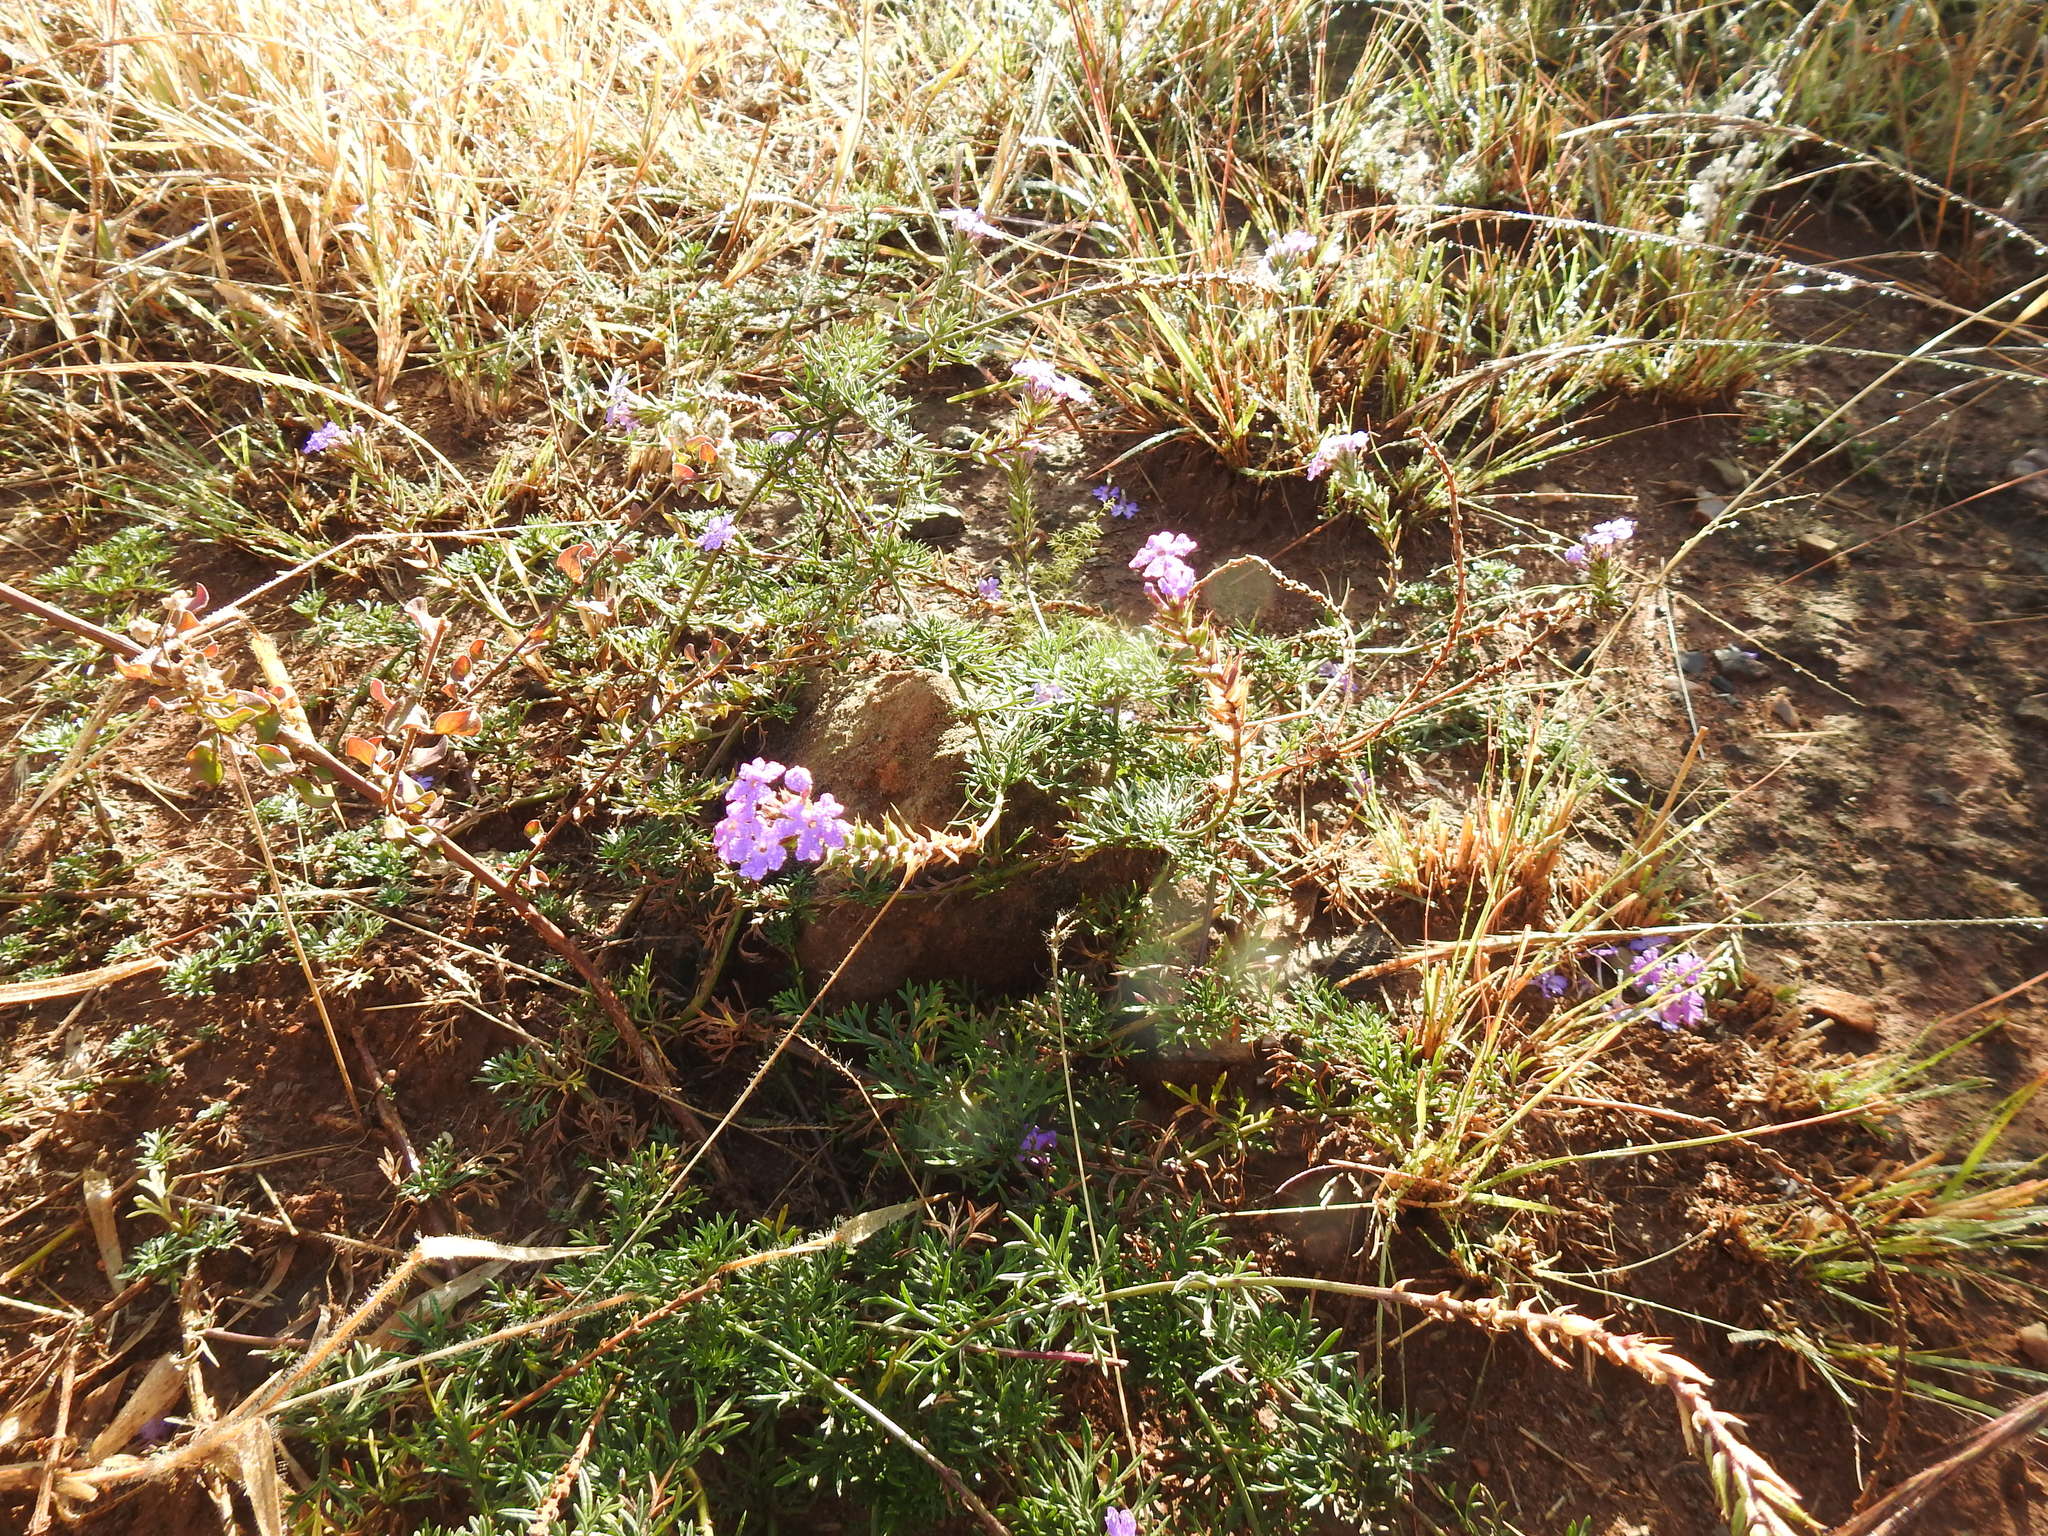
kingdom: Plantae
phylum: Tracheophyta
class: Magnoliopsida
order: Lamiales
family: Verbenaceae
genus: Verbena
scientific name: Verbena aristigera
